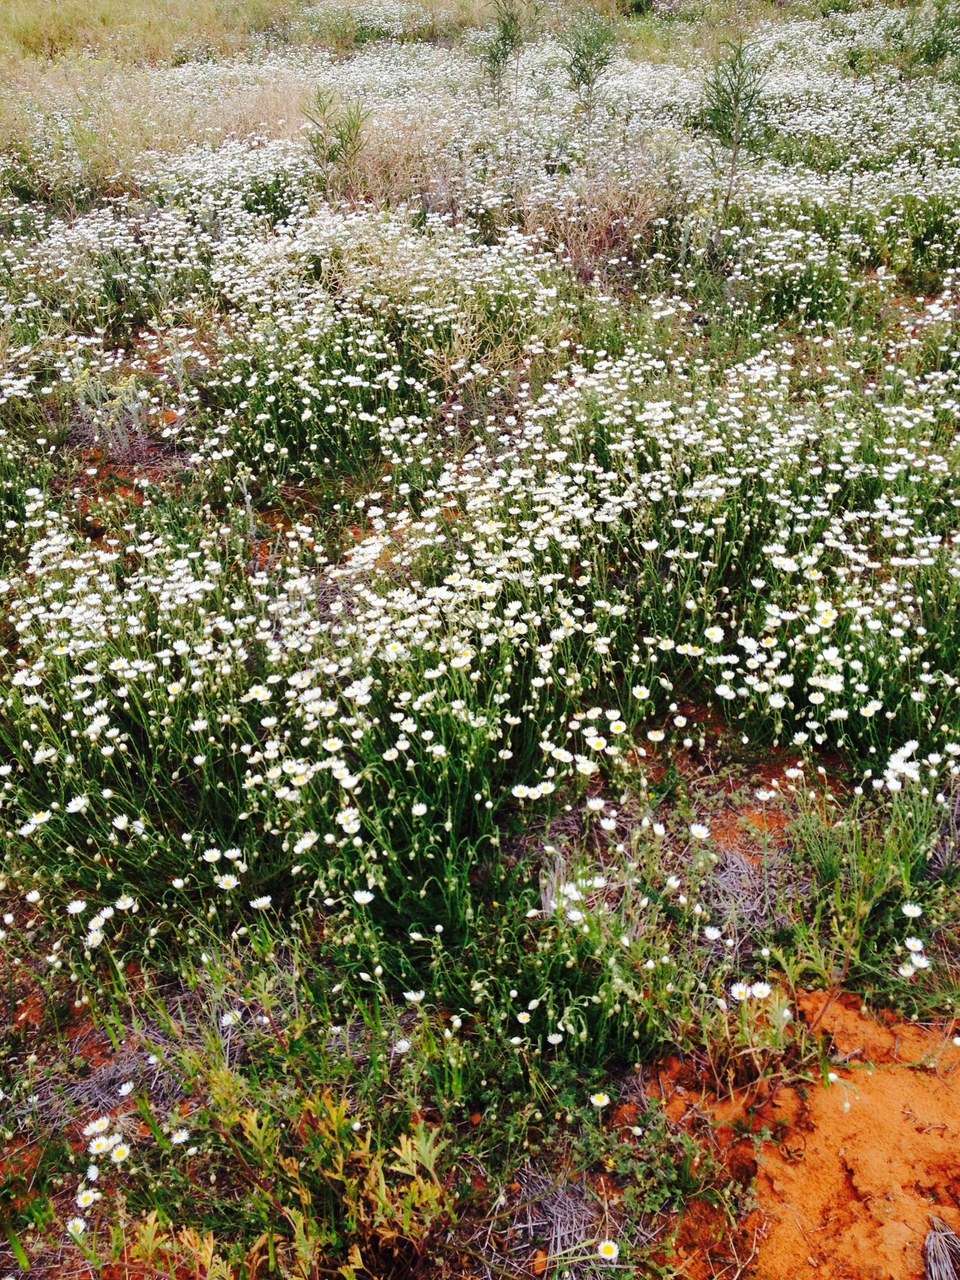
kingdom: Plantae
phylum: Tracheophyta
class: Magnoliopsida
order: Asterales
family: Asteraceae
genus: Rhodanthe
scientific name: Rhodanthe corymbiflora
